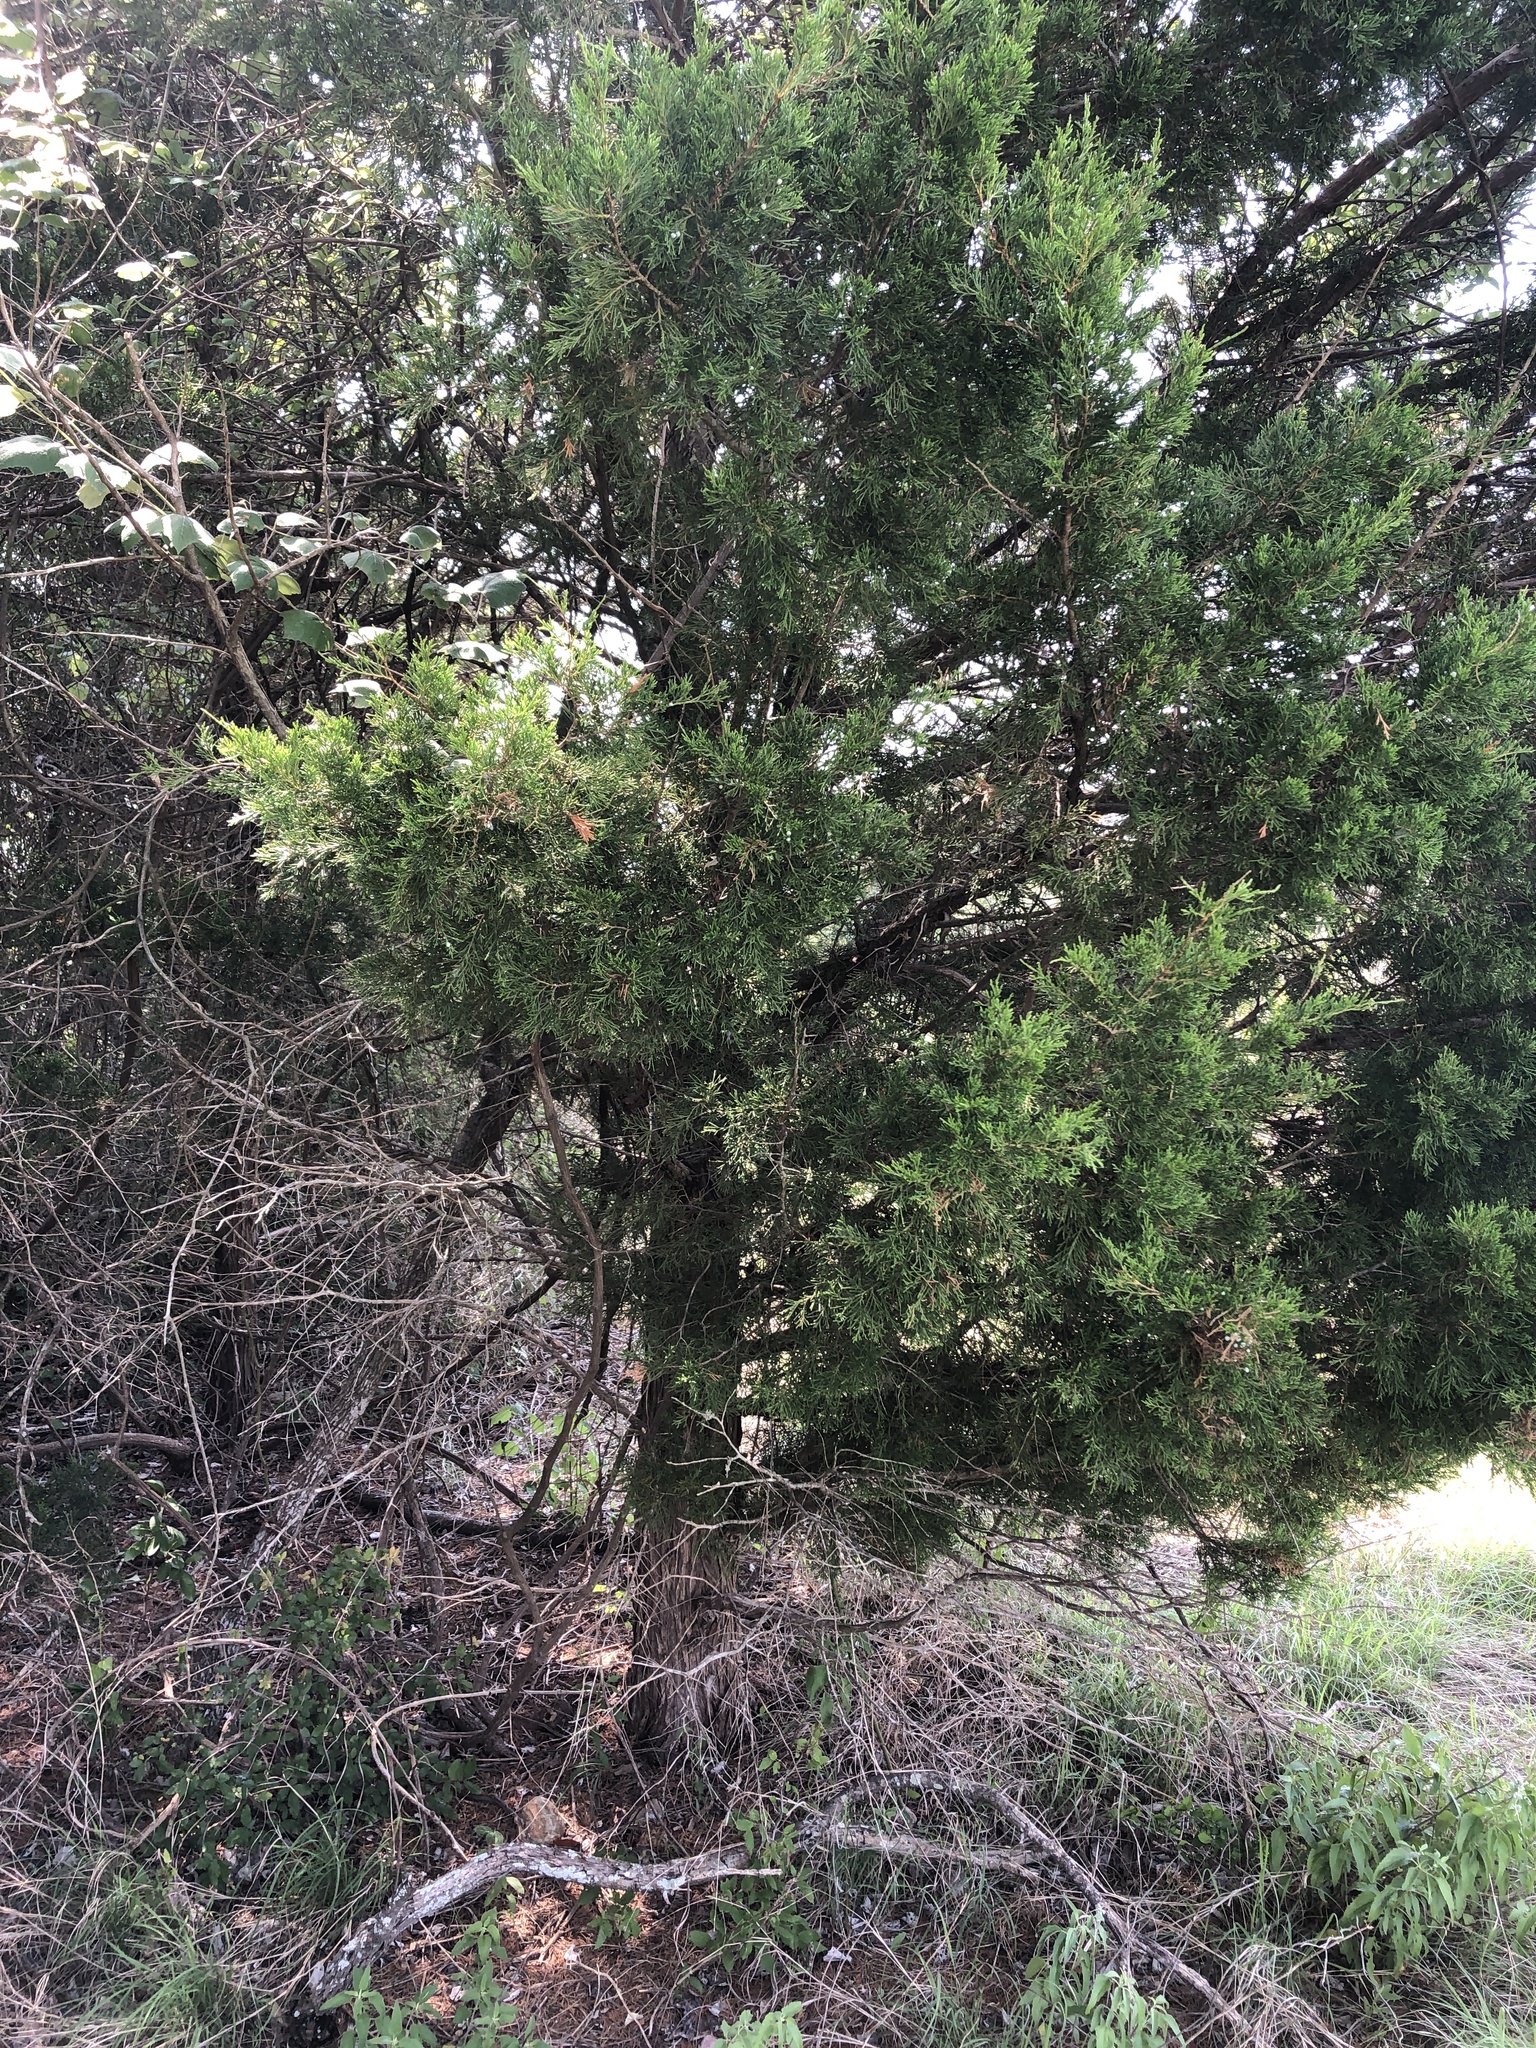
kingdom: Plantae
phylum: Tracheophyta
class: Pinopsida
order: Pinales
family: Cupressaceae
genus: Juniperus
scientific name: Juniperus virginiana
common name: Red juniper
